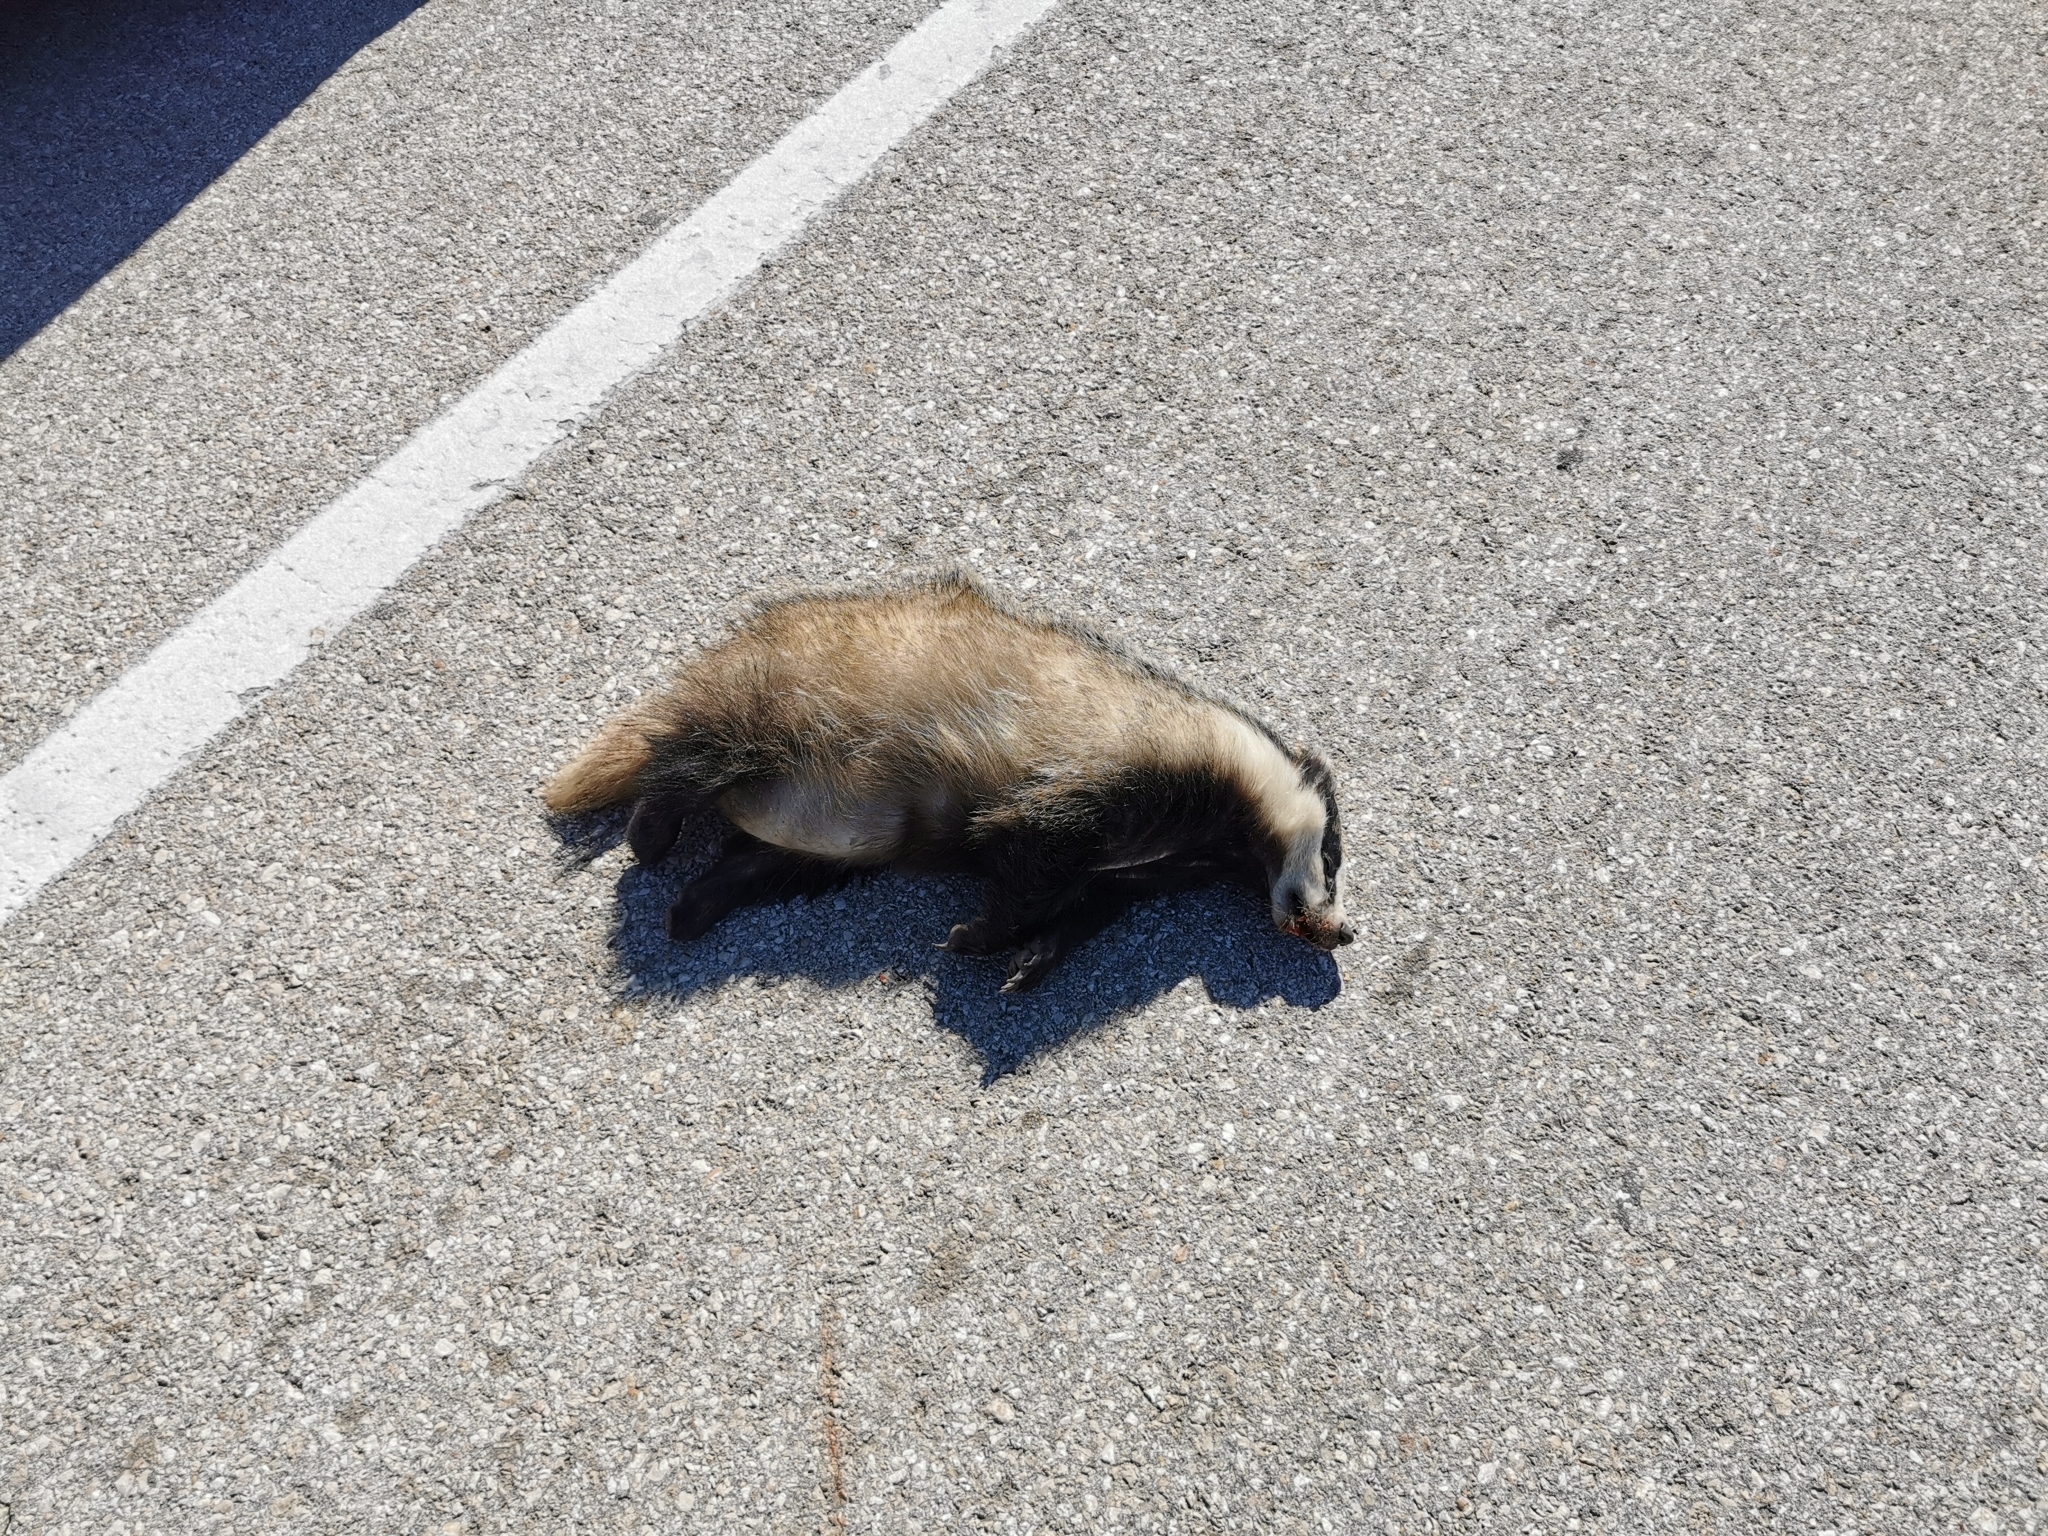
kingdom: Animalia
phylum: Chordata
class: Mammalia
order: Carnivora
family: Mustelidae
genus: Meles
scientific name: Meles meles
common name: Eurasian badger
